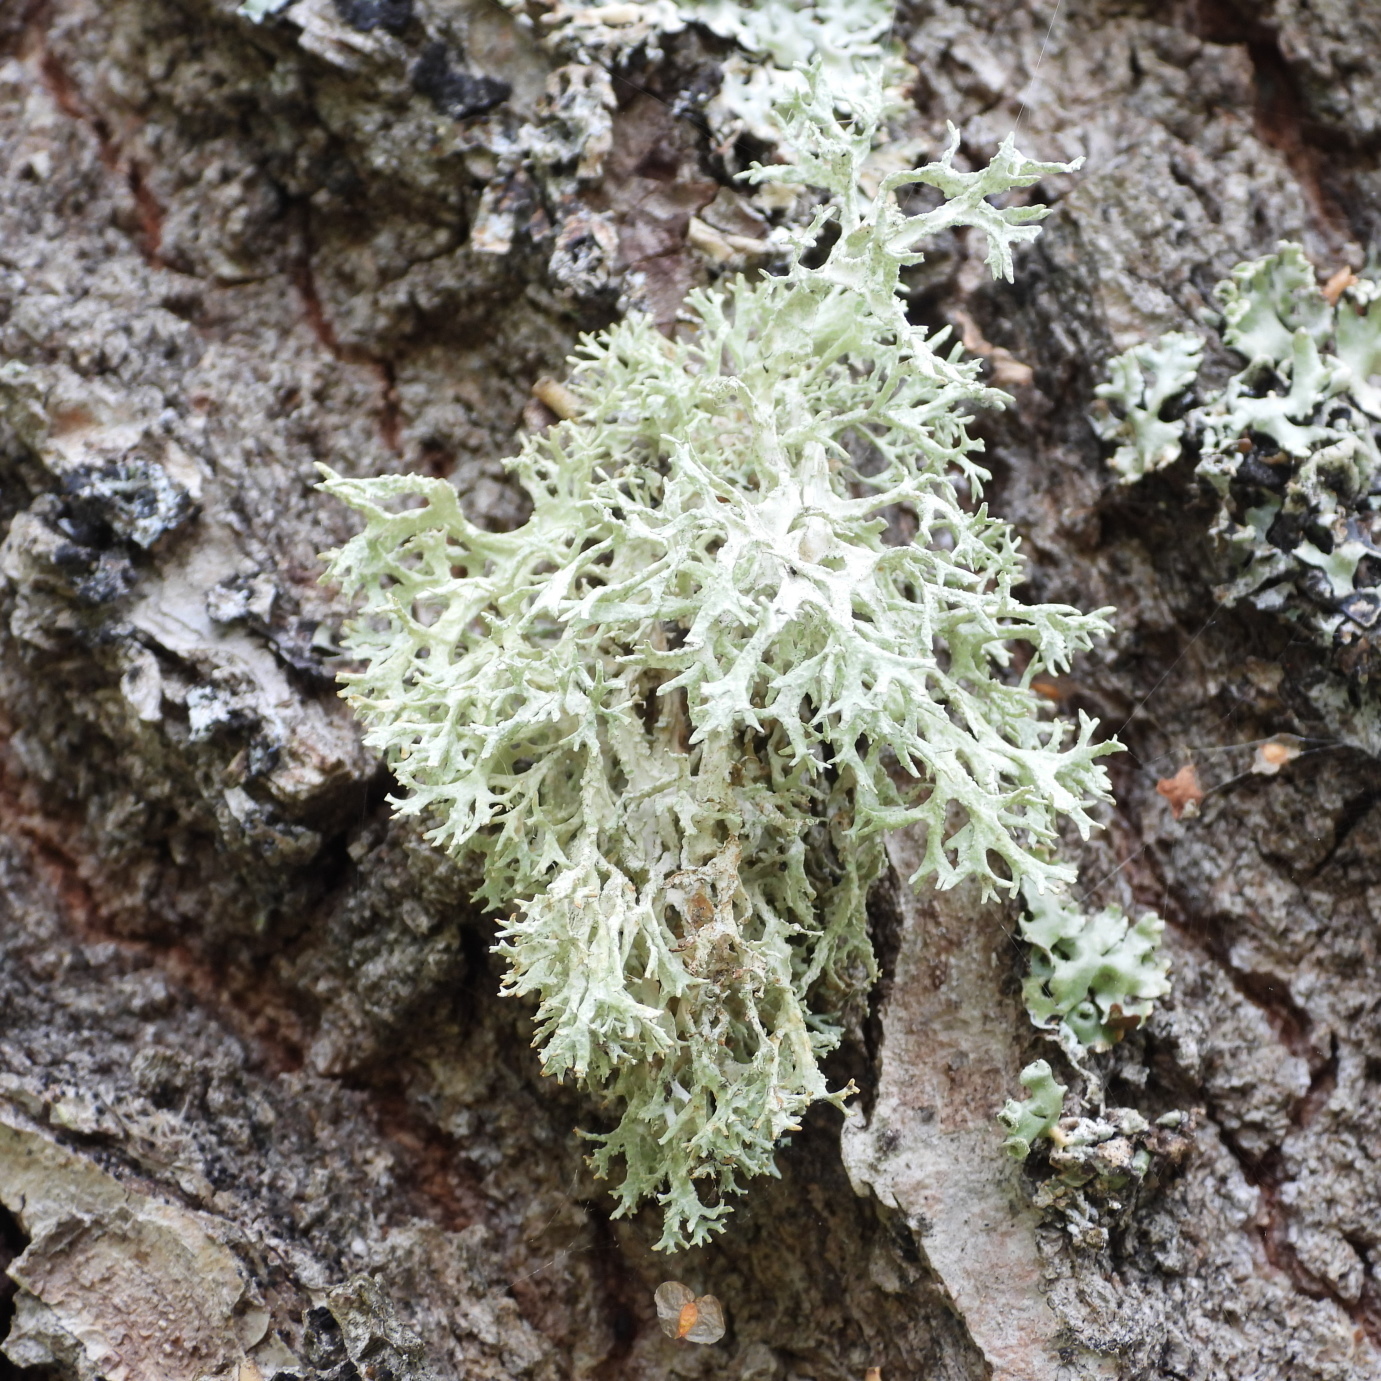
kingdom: Fungi
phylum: Ascomycota
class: Lecanoromycetes
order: Lecanorales
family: Parmeliaceae
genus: Evernia
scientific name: Evernia prunastri
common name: Oak moss
